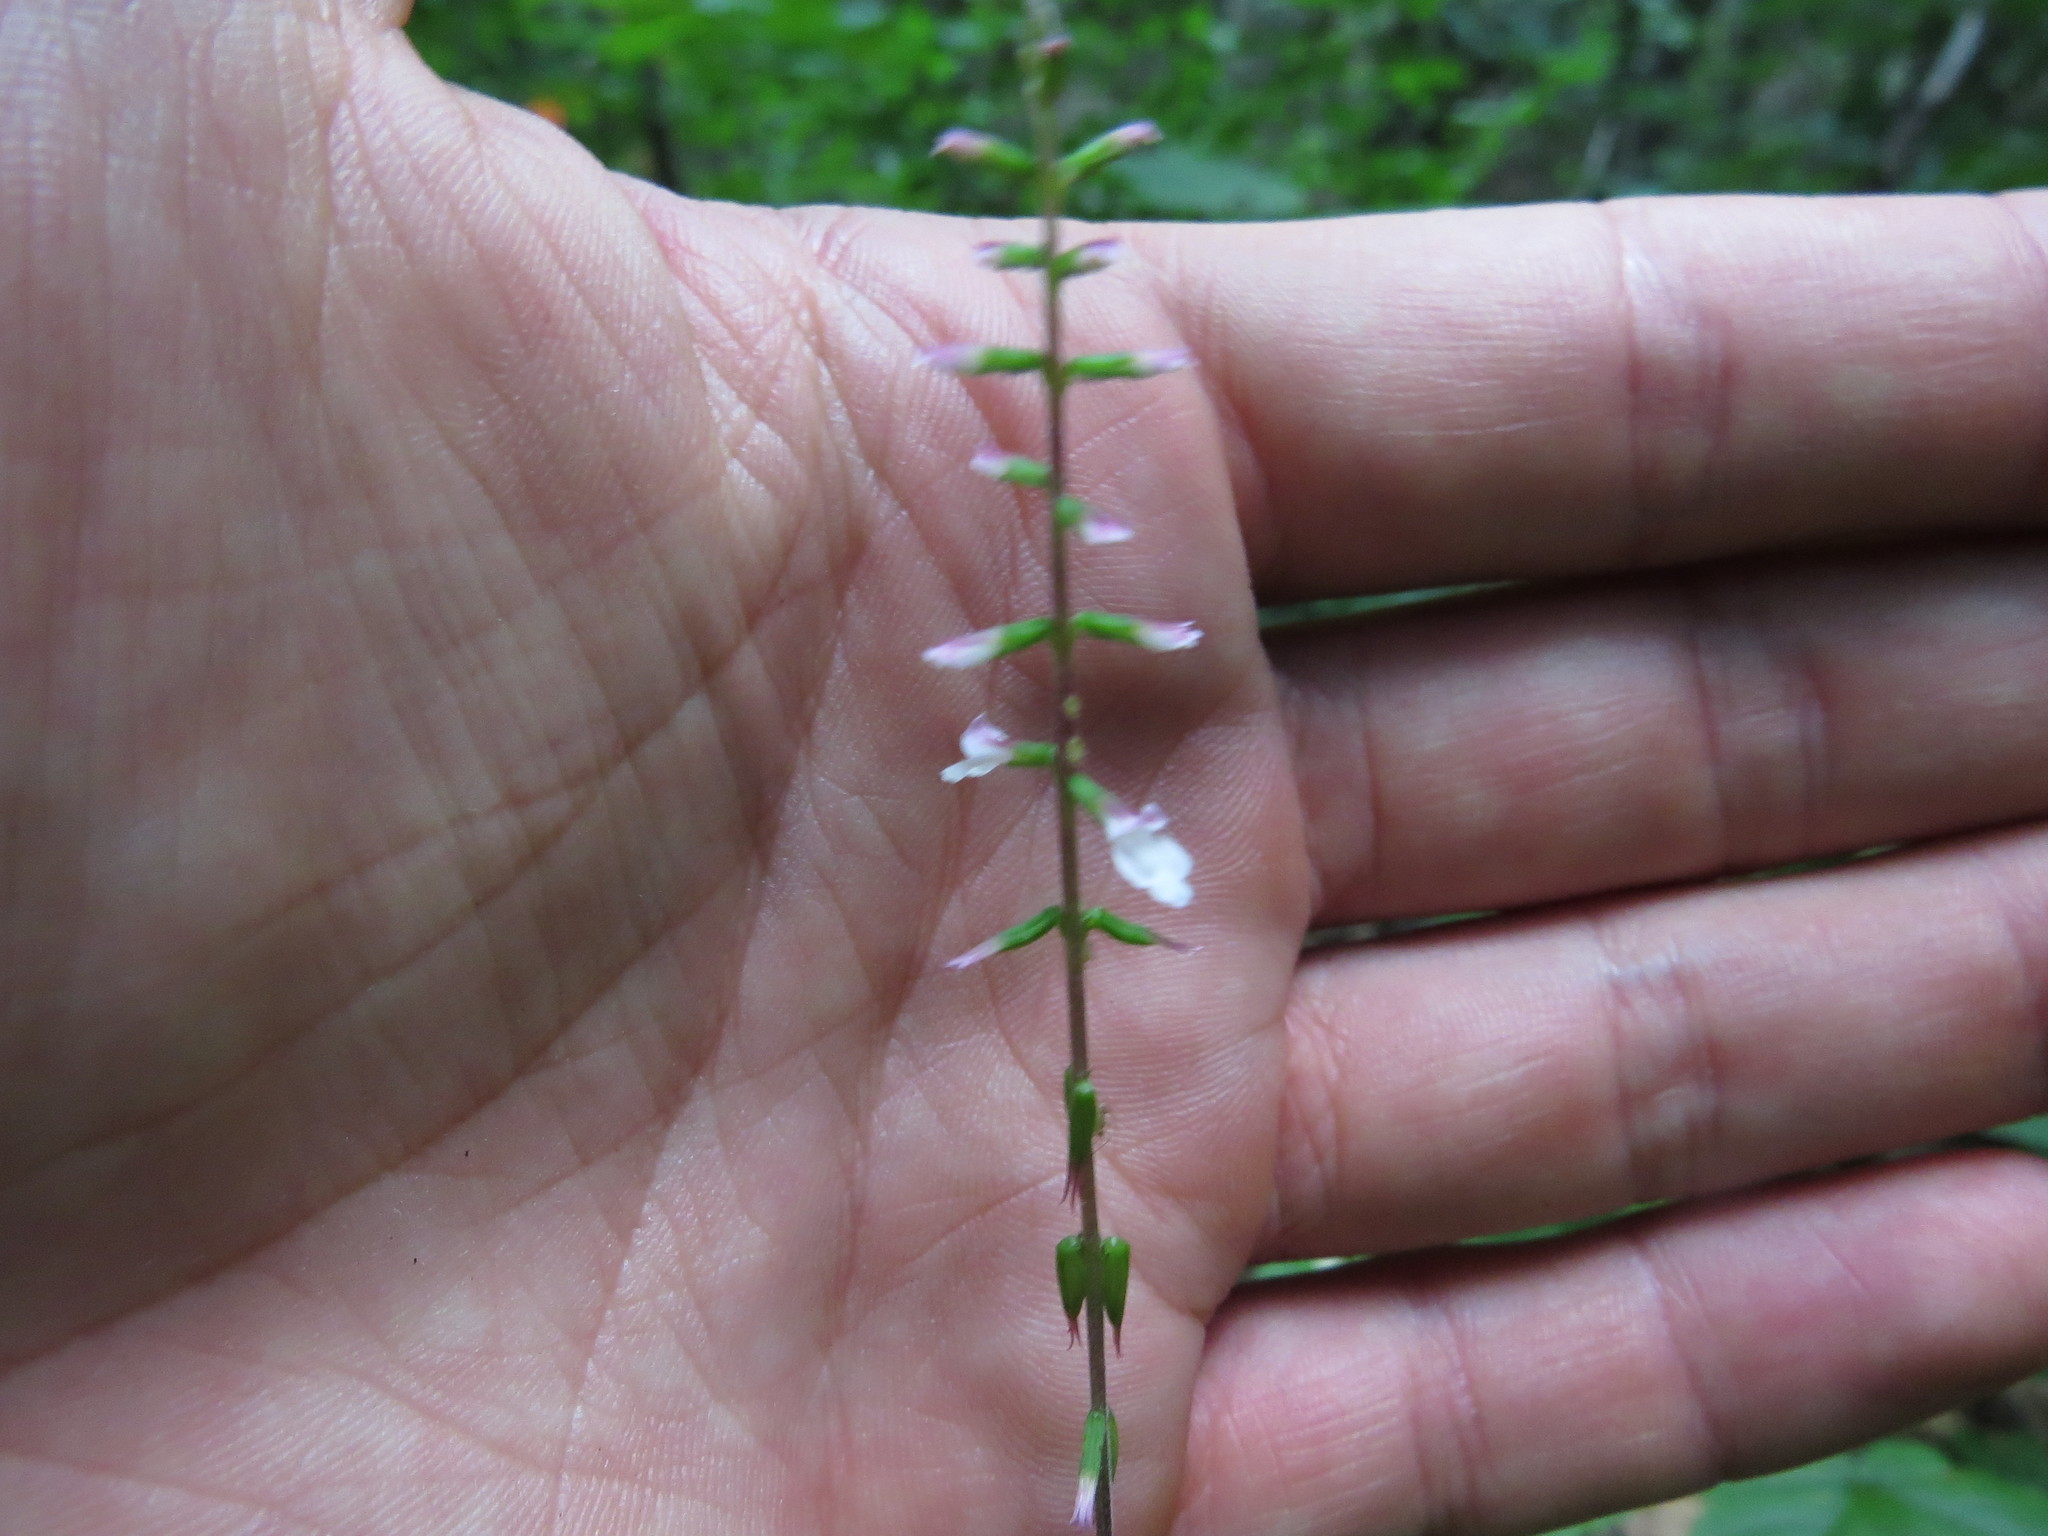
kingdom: Plantae
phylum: Tracheophyta
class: Magnoliopsida
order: Lamiales
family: Phrymaceae
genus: Phryma
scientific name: Phryma leptostachya
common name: American lopseed
